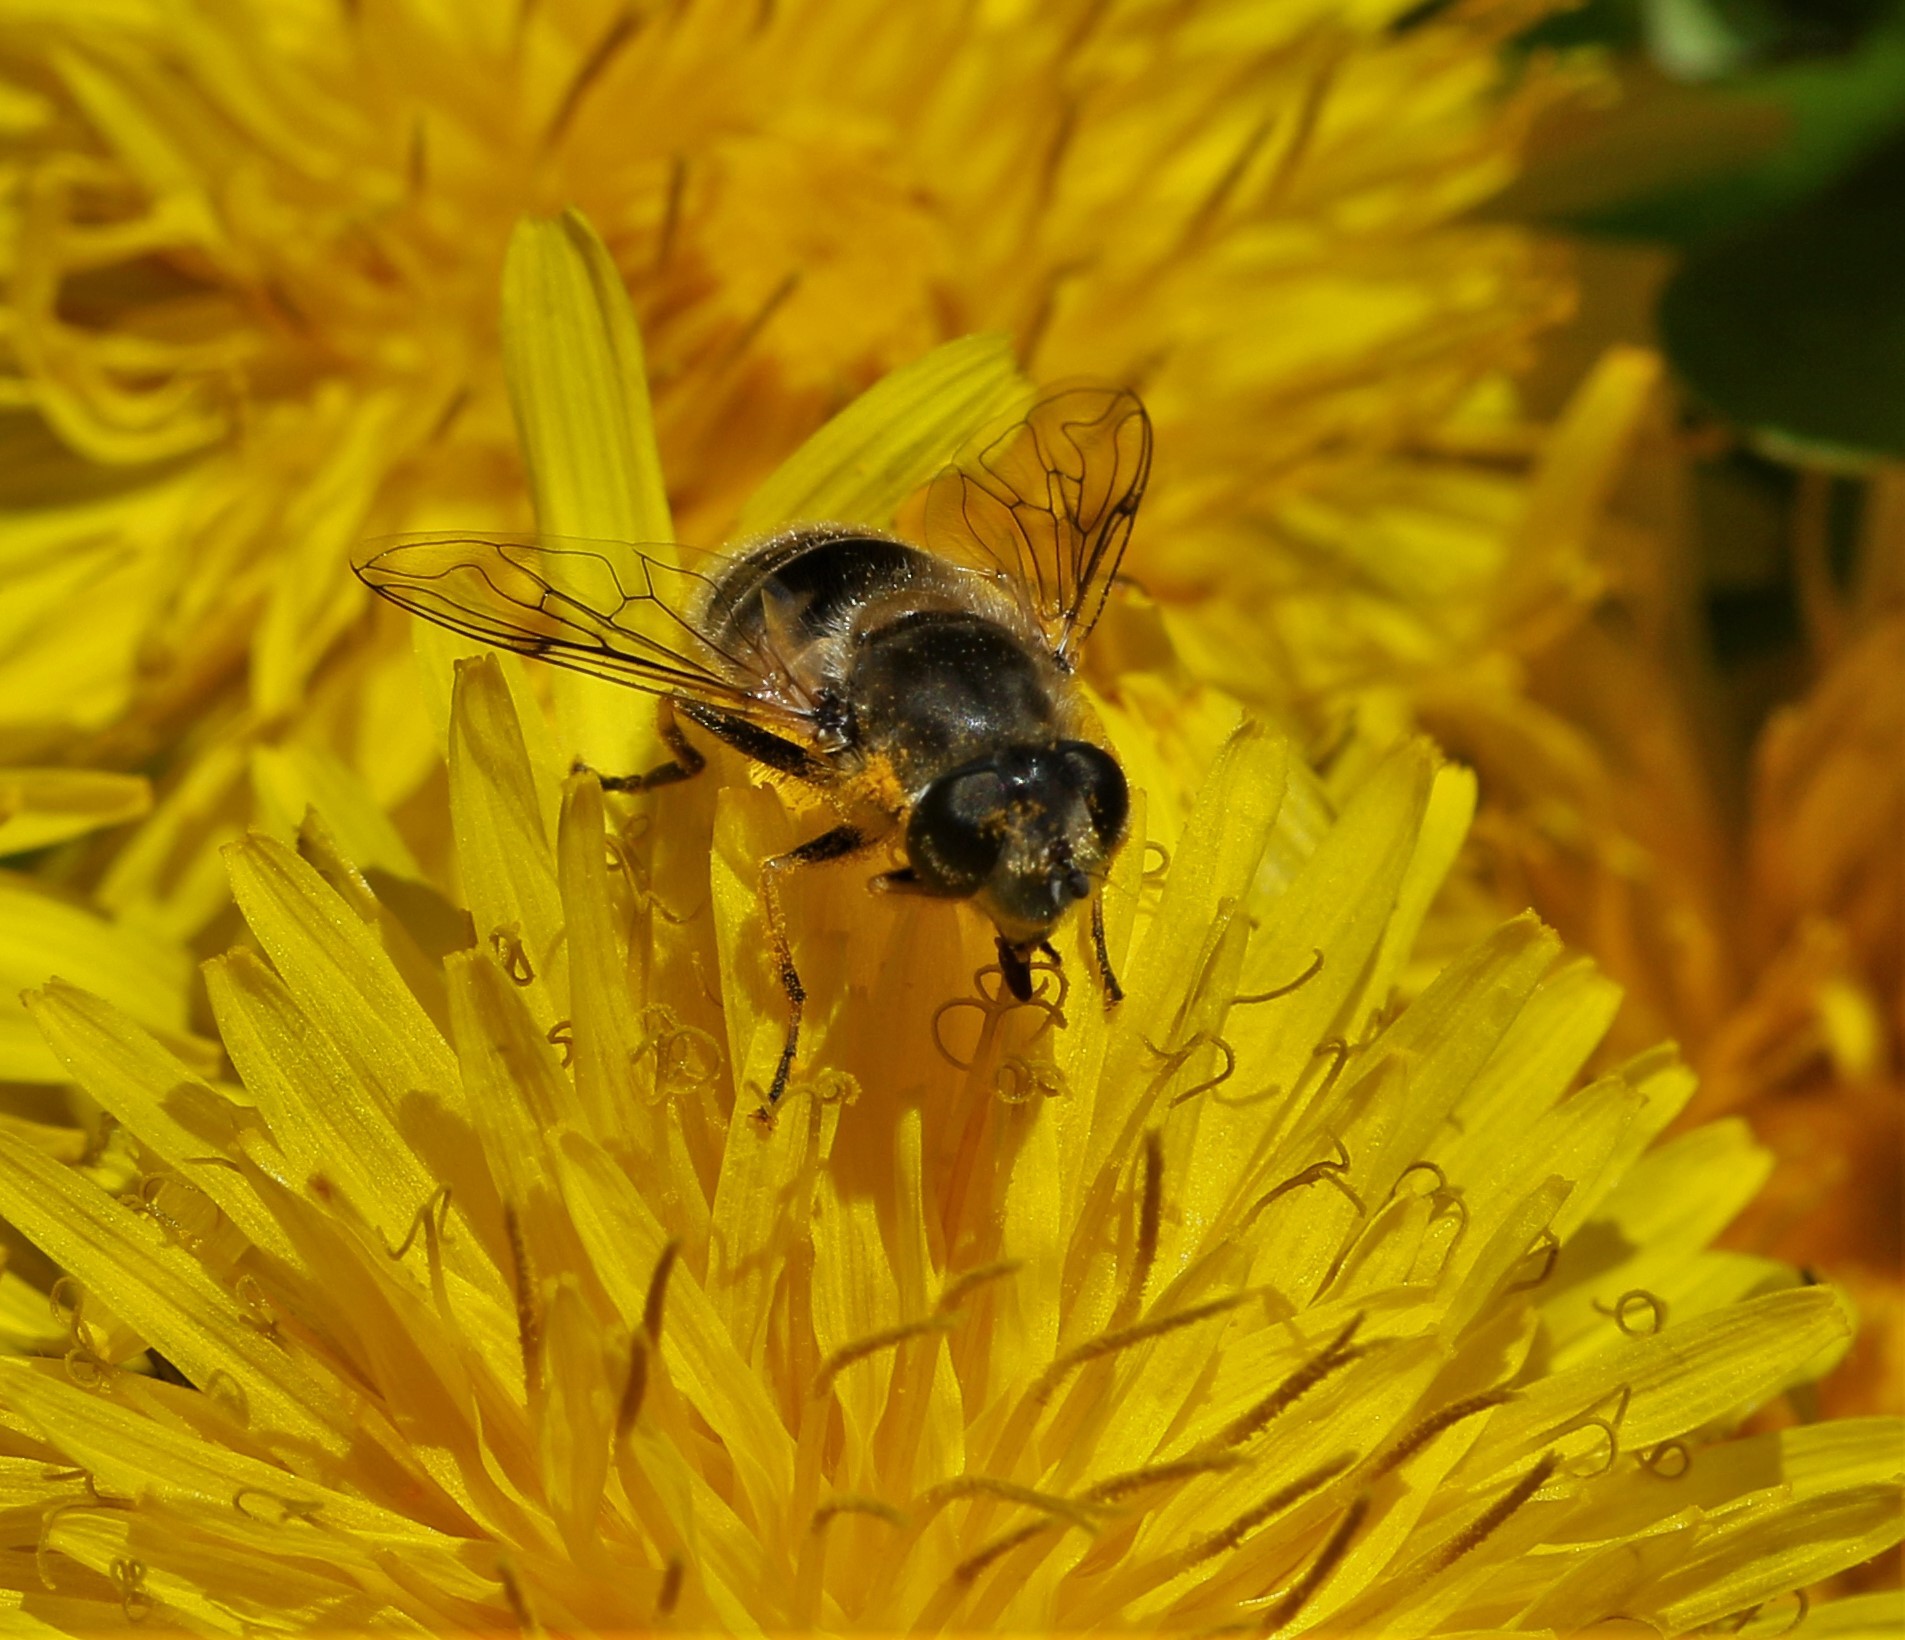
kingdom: Animalia
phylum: Arthropoda
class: Insecta
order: Diptera
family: Syrphidae
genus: Eristalis
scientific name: Eristalis arbustorum
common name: Hover fly
